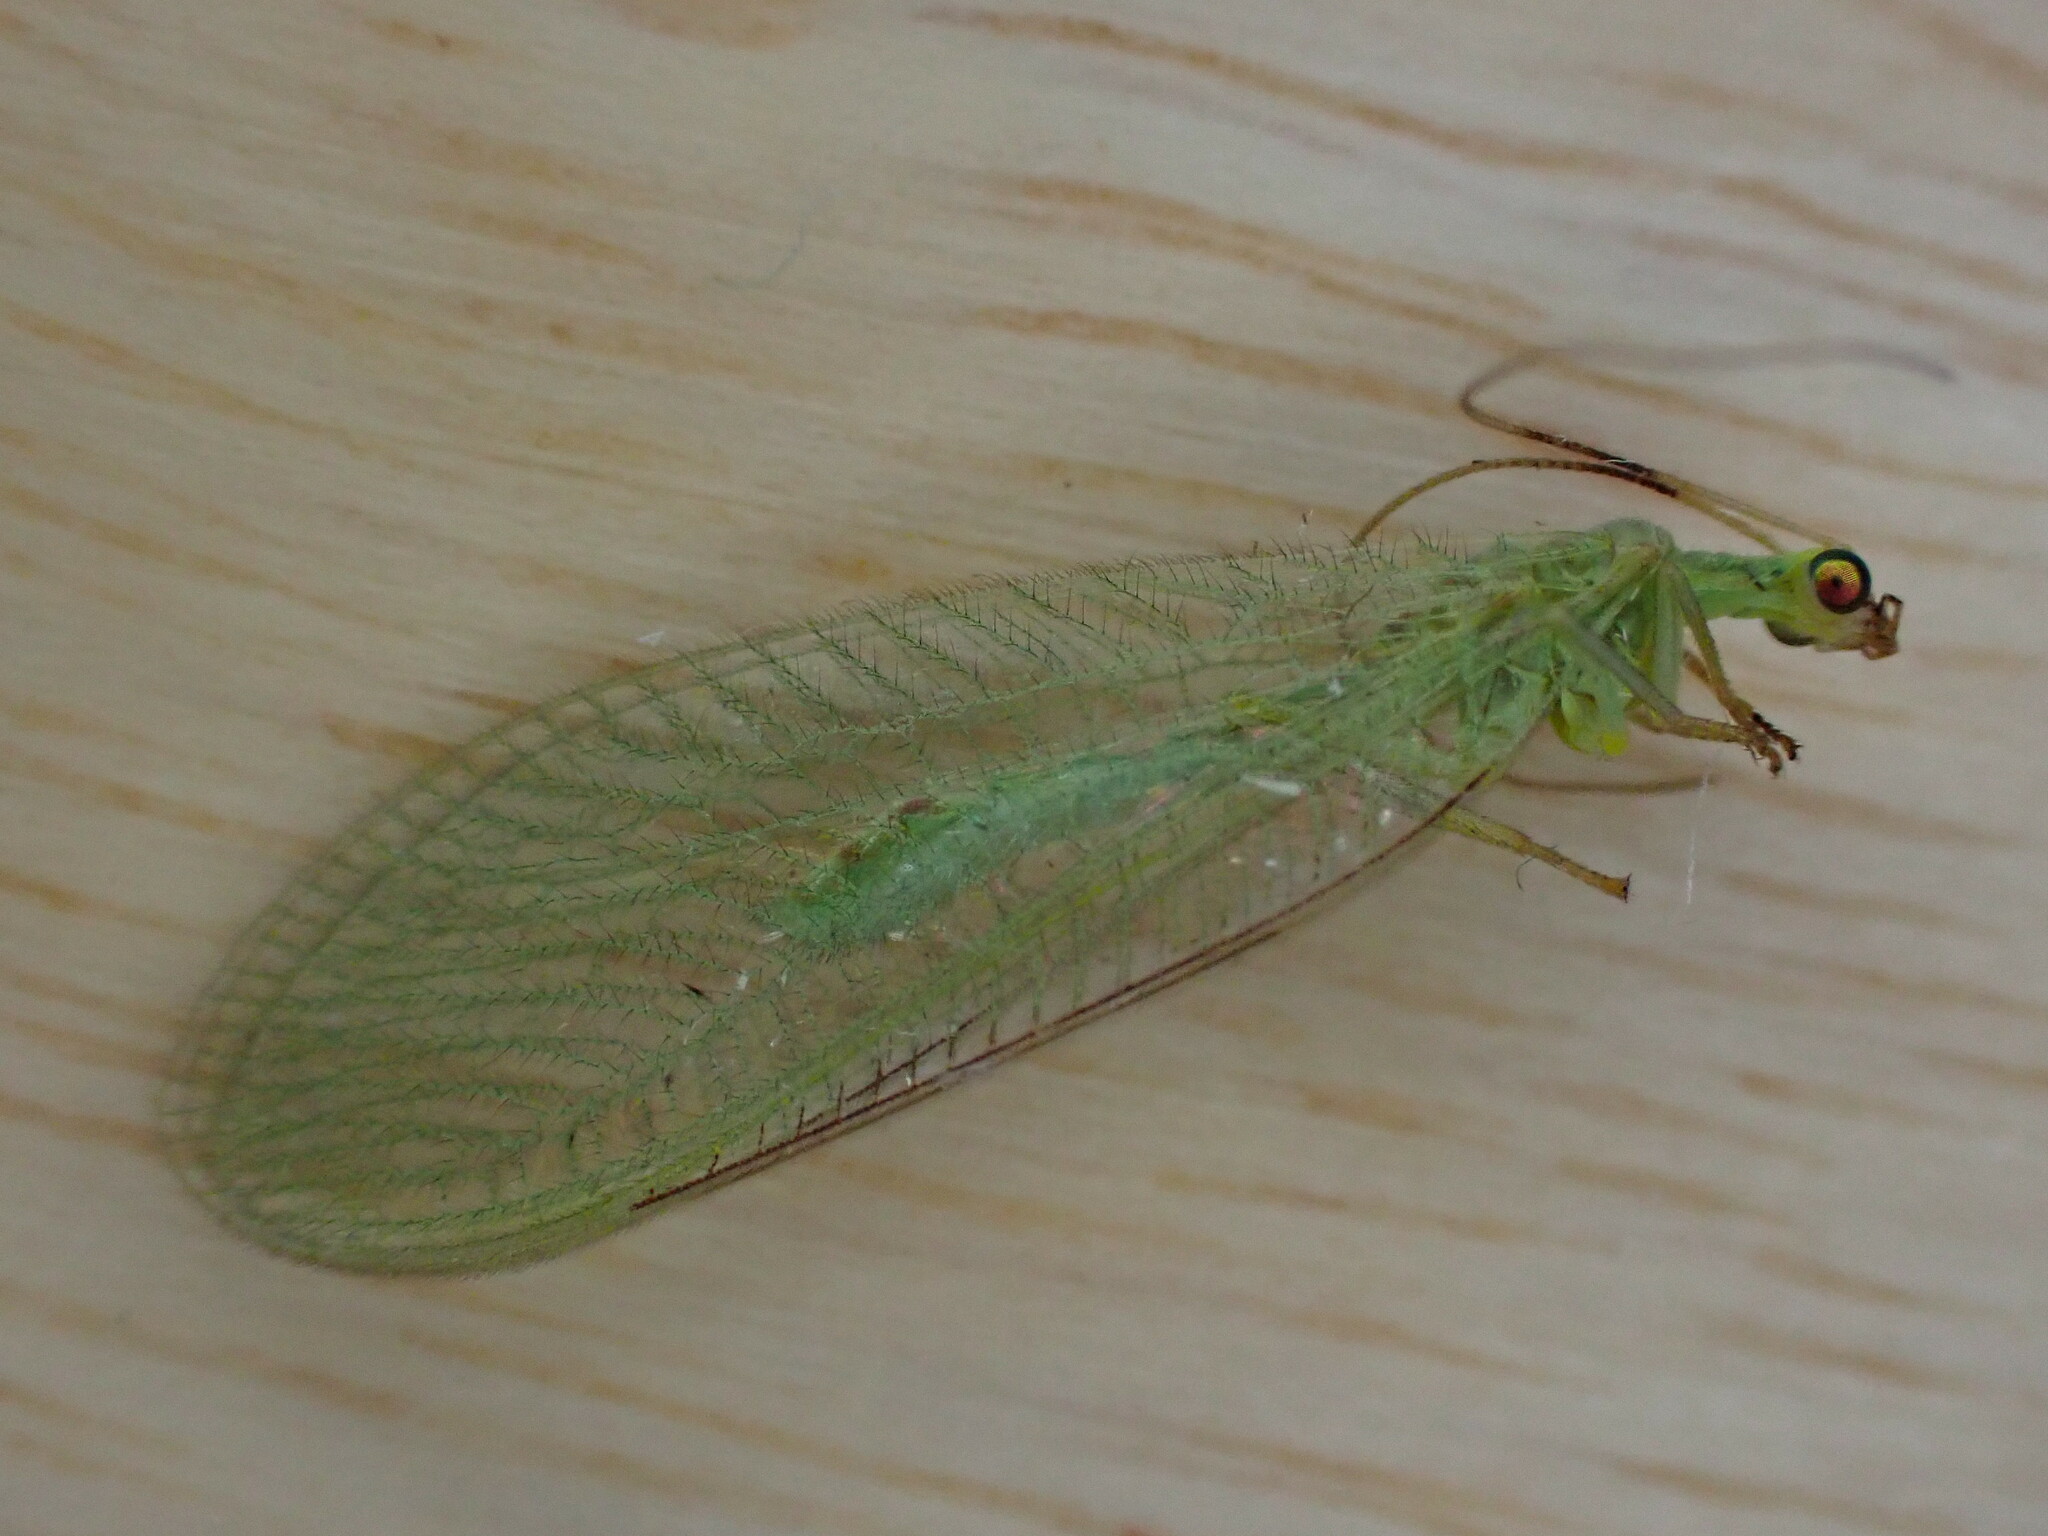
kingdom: Animalia
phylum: Arthropoda
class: Insecta
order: Neuroptera
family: Chrysopidae
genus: Chrysoperla
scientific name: Chrysoperla
